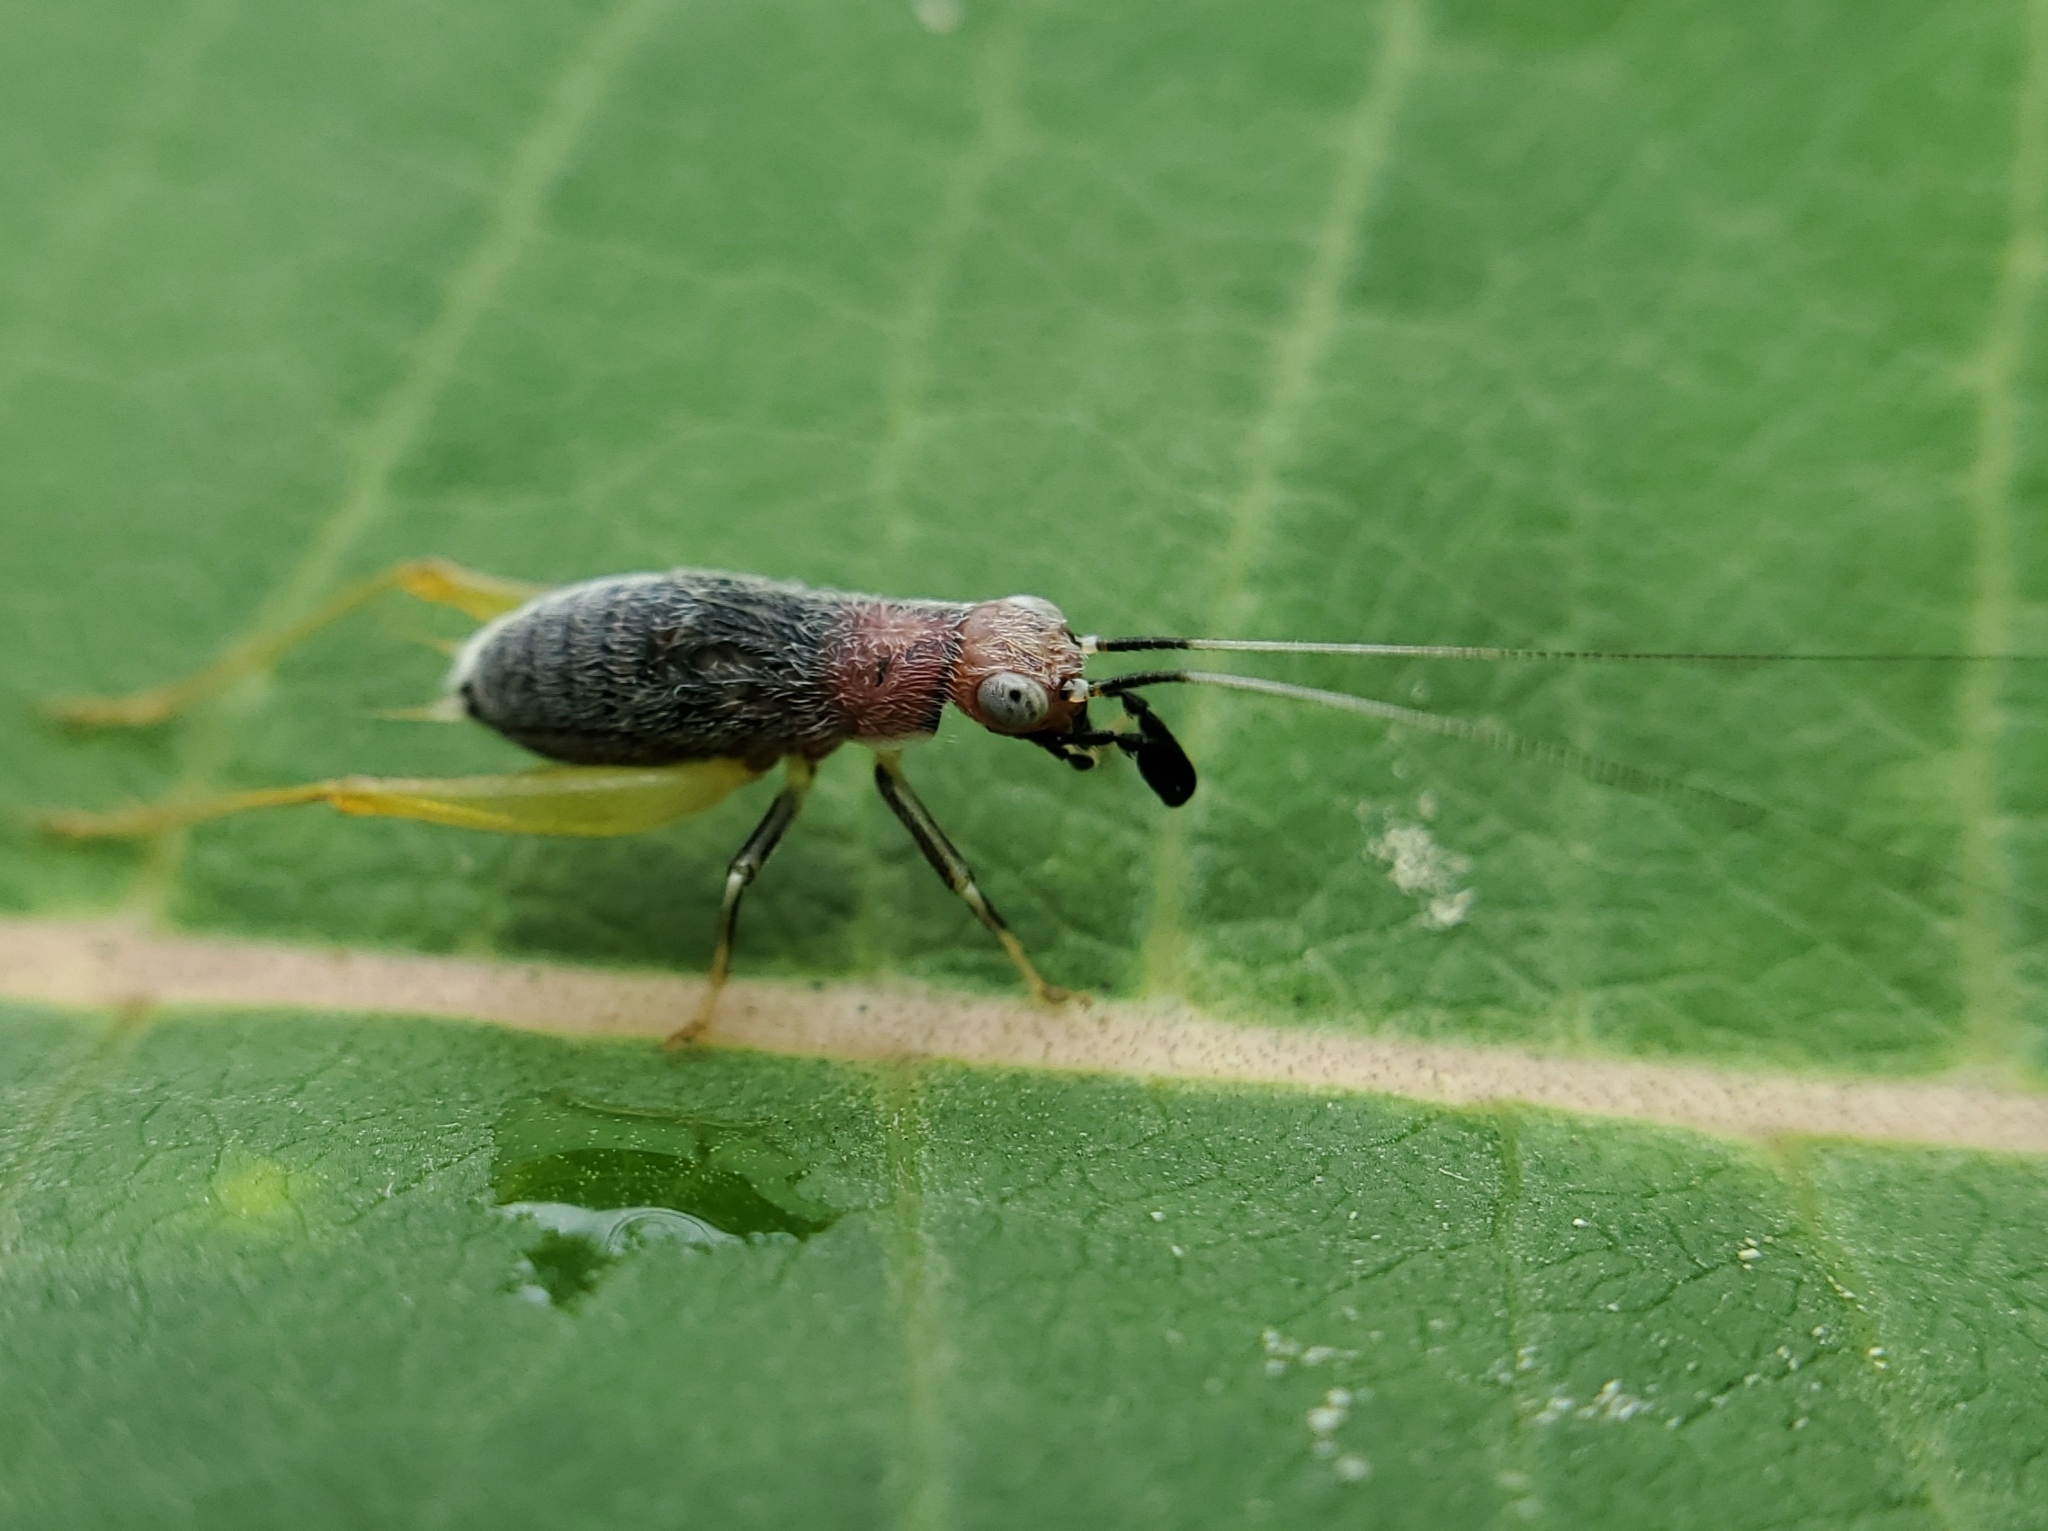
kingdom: Animalia
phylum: Arthropoda
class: Insecta
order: Orthoptera
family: Trigonidiidae
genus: Phyllopalpus
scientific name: Phyllopalpus pulchellus
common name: Handsome trig
